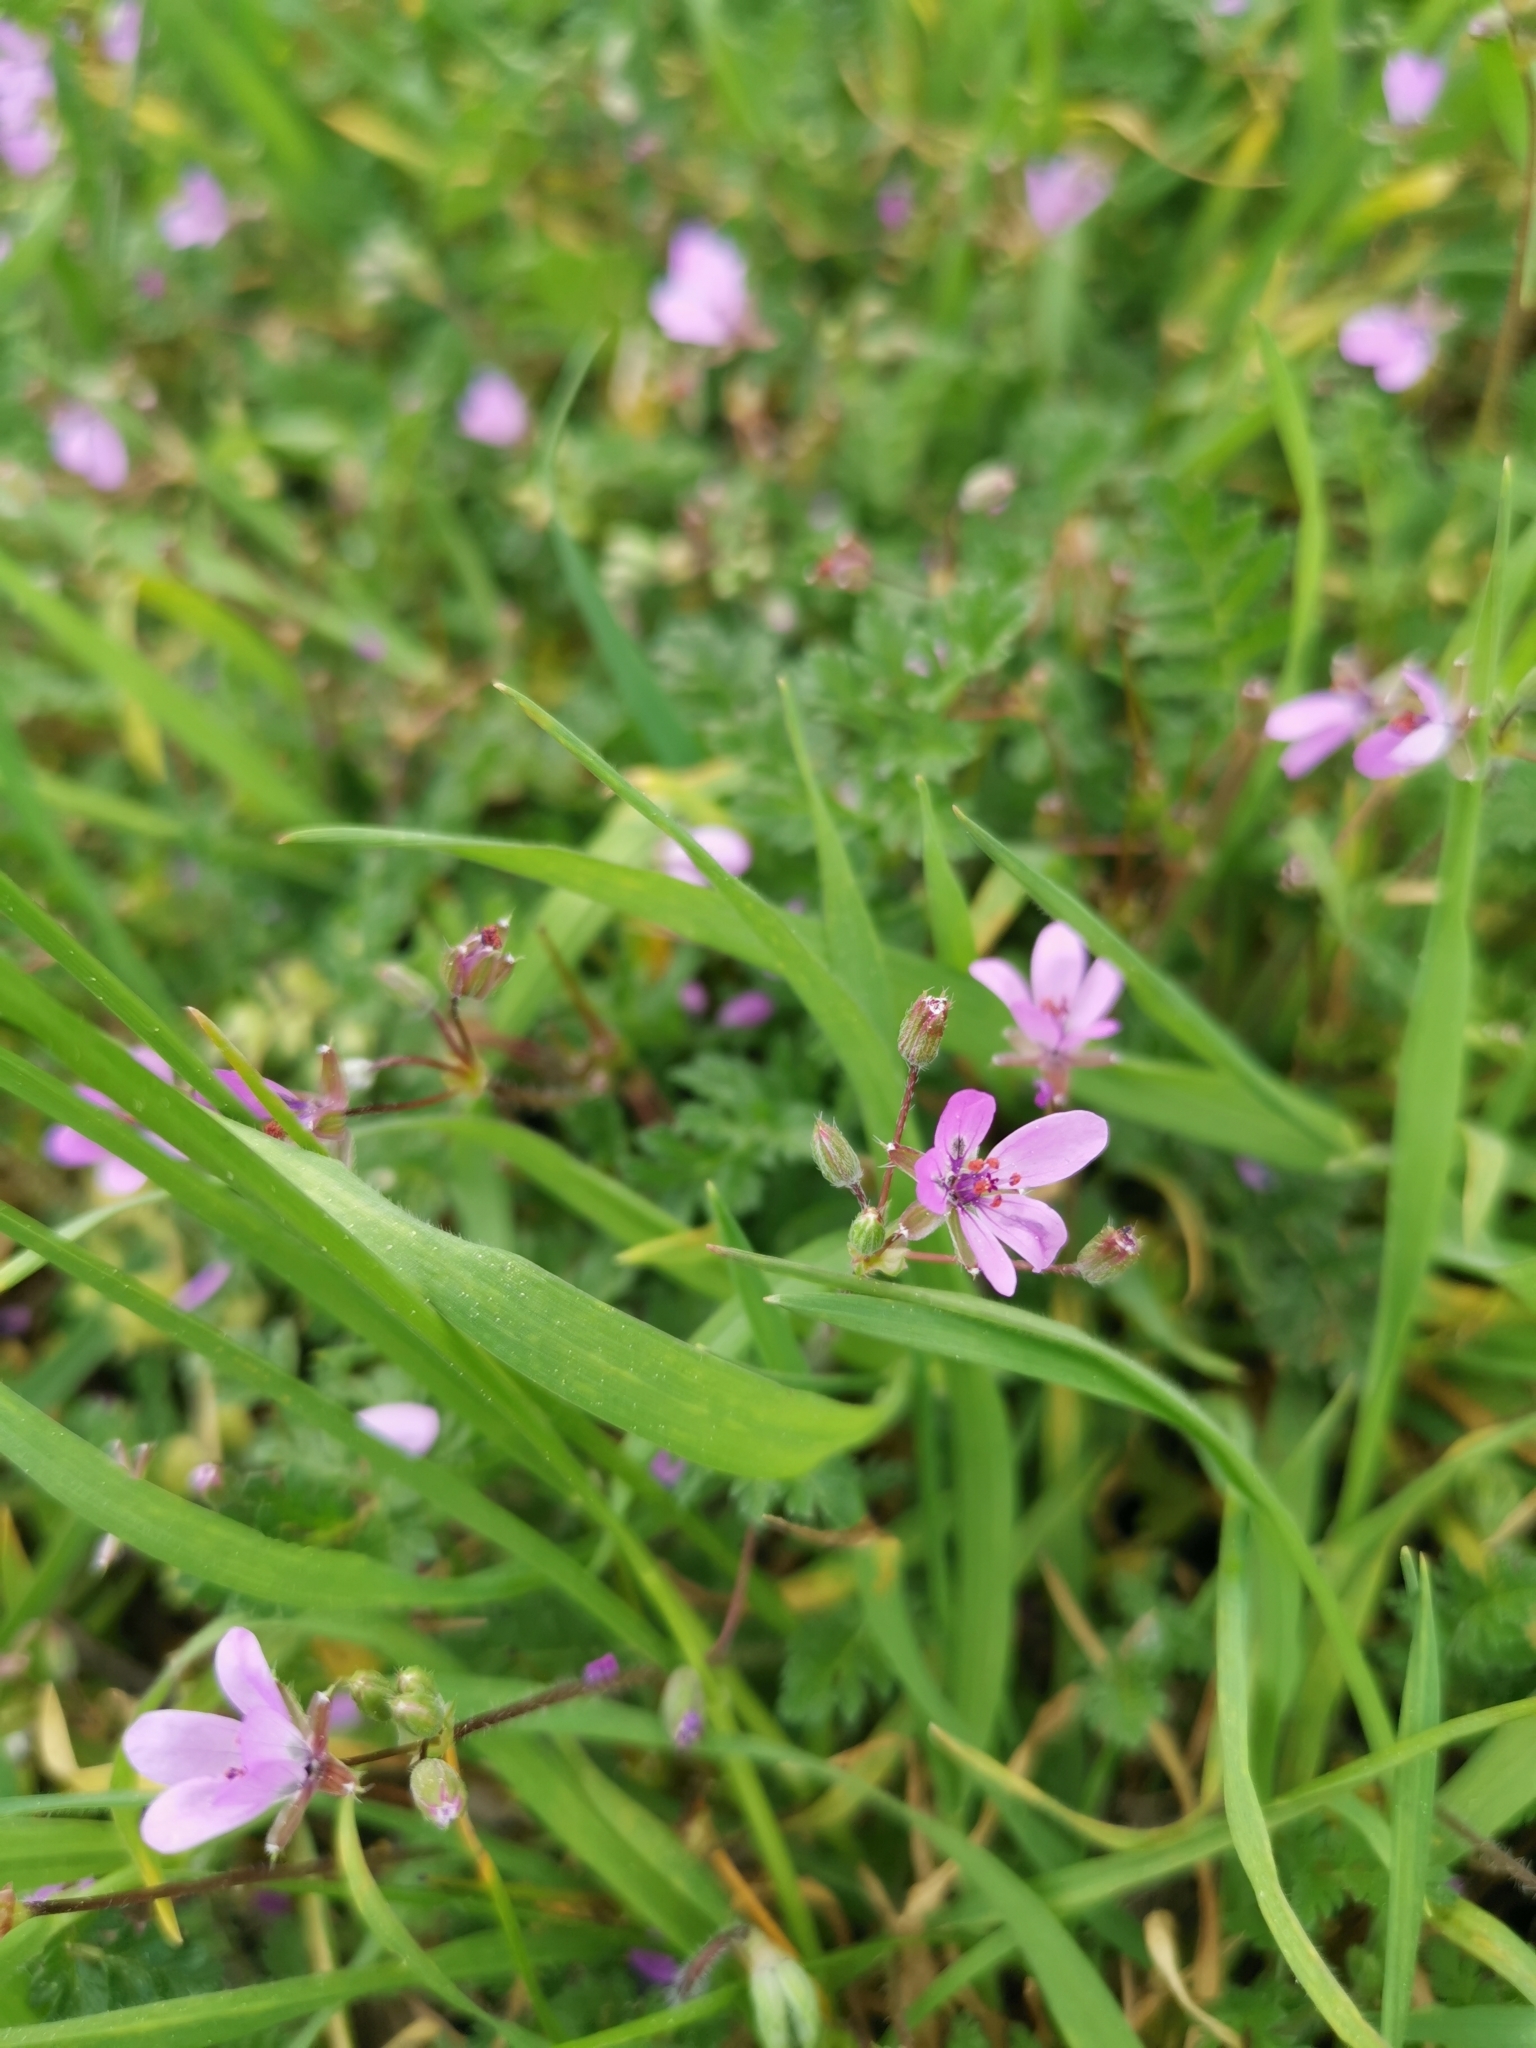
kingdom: Plantae
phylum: Tracheophyta
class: Magnoliopsida
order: Geraniales
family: Geraniaceae
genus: Erodium
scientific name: Erodium cicutarium
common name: Common stork's-bill
